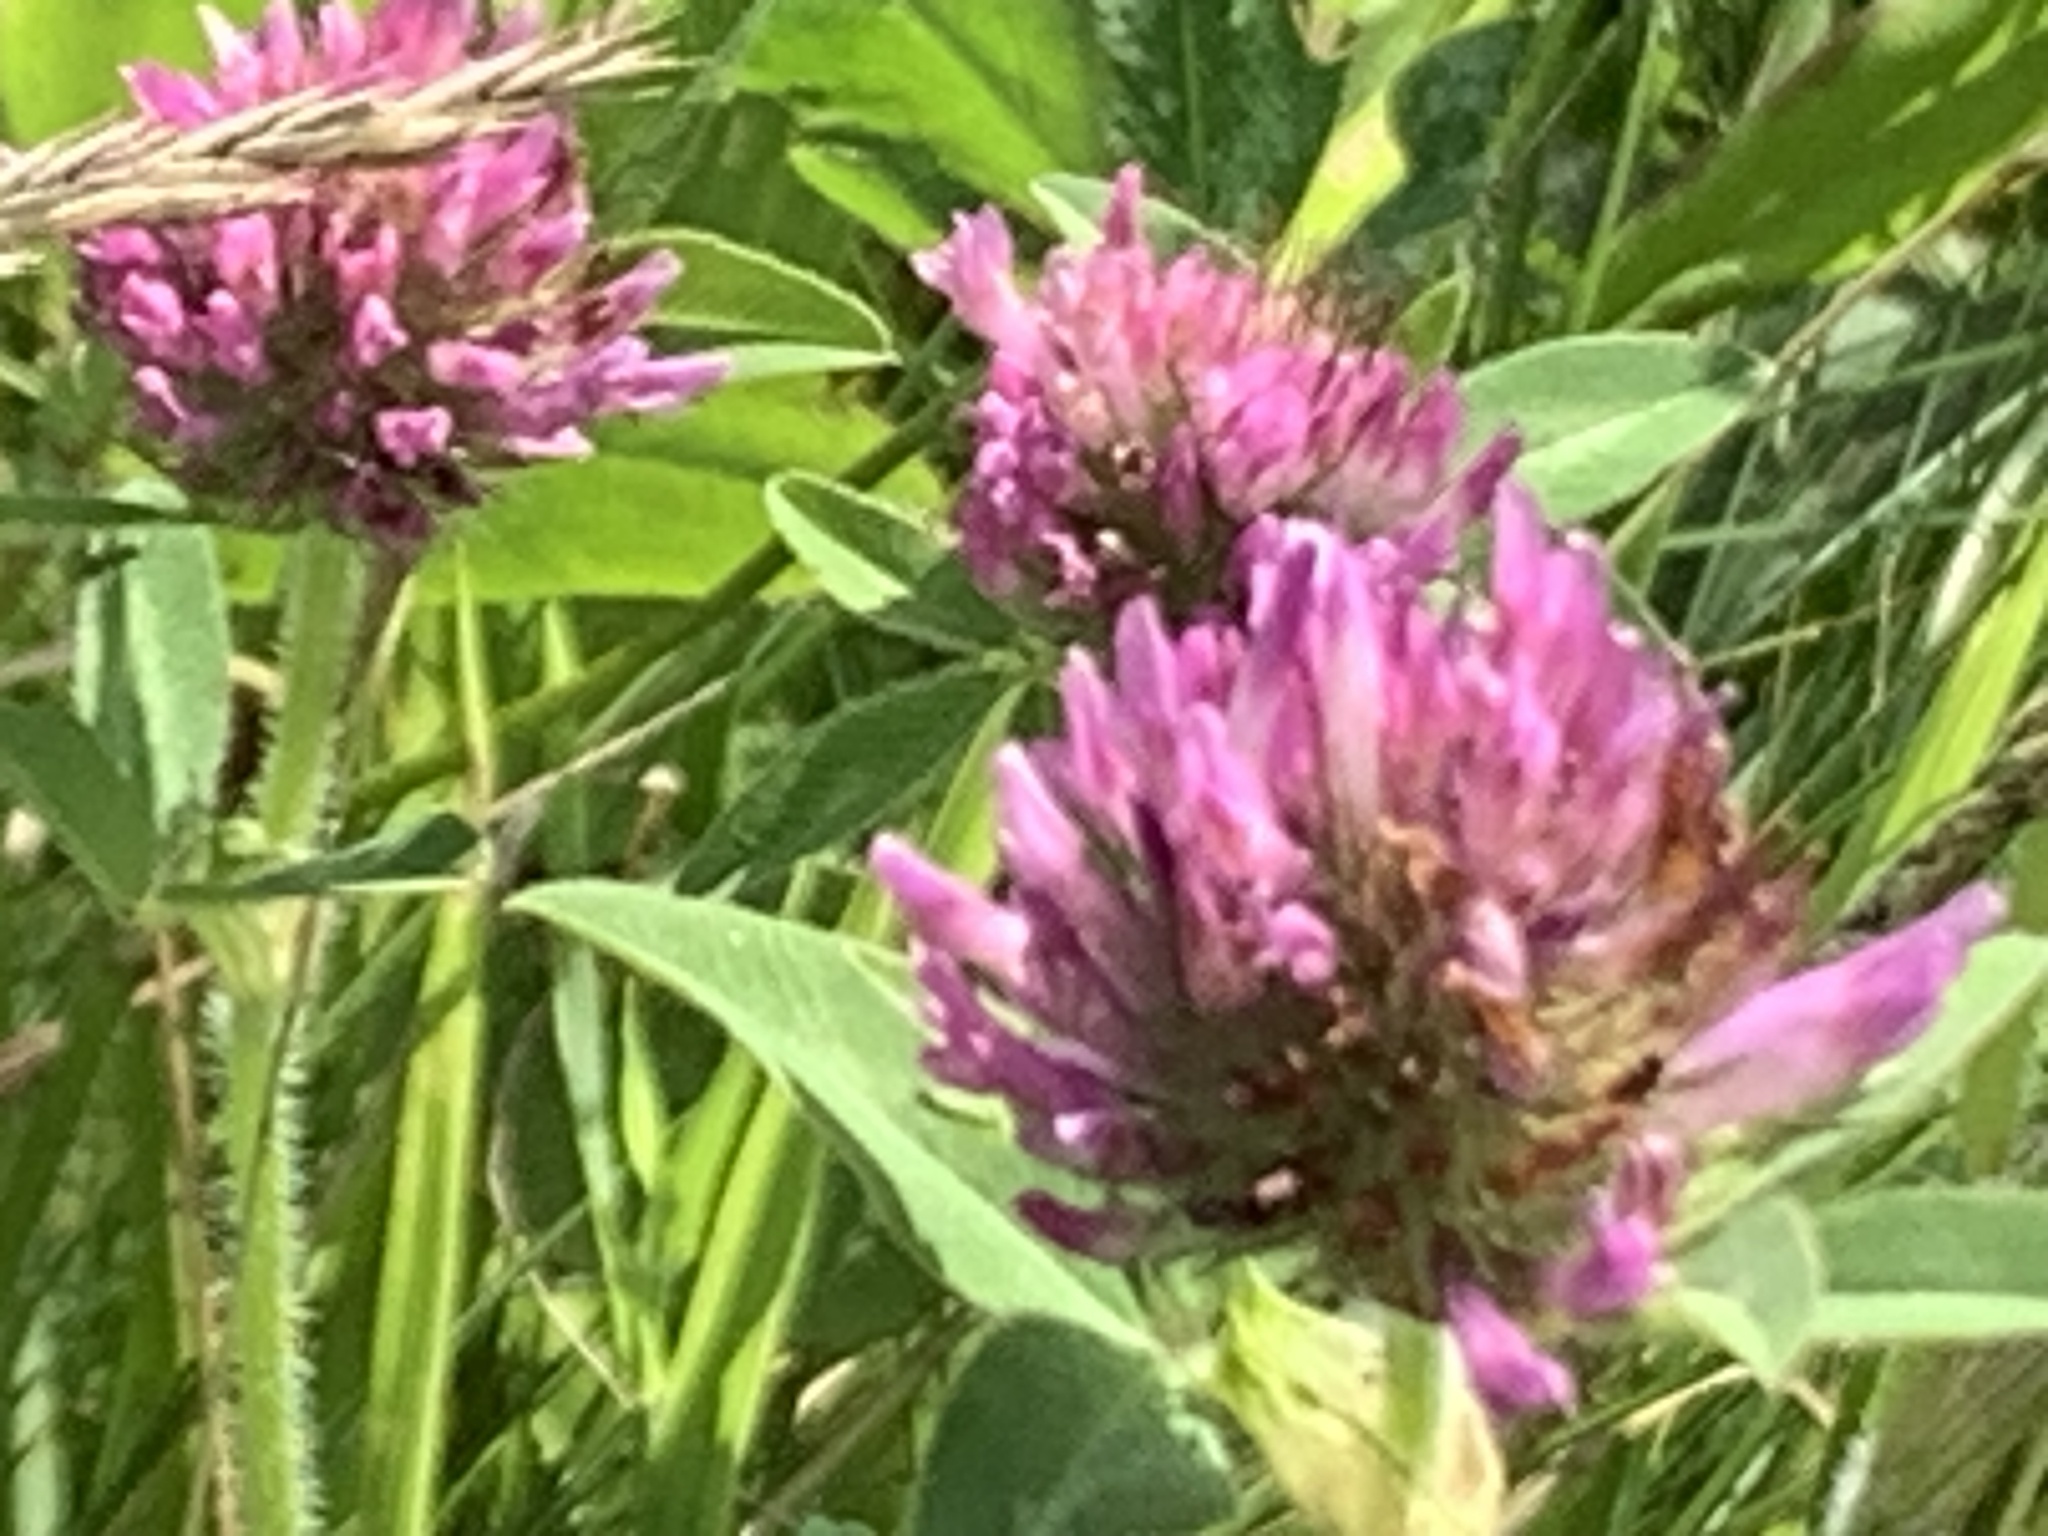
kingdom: Plantae
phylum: Tracheophyta
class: Magnoliopsida
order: Fabales
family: Fabaceae
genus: Trifolium
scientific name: Trifolium pratense
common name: Red clover
